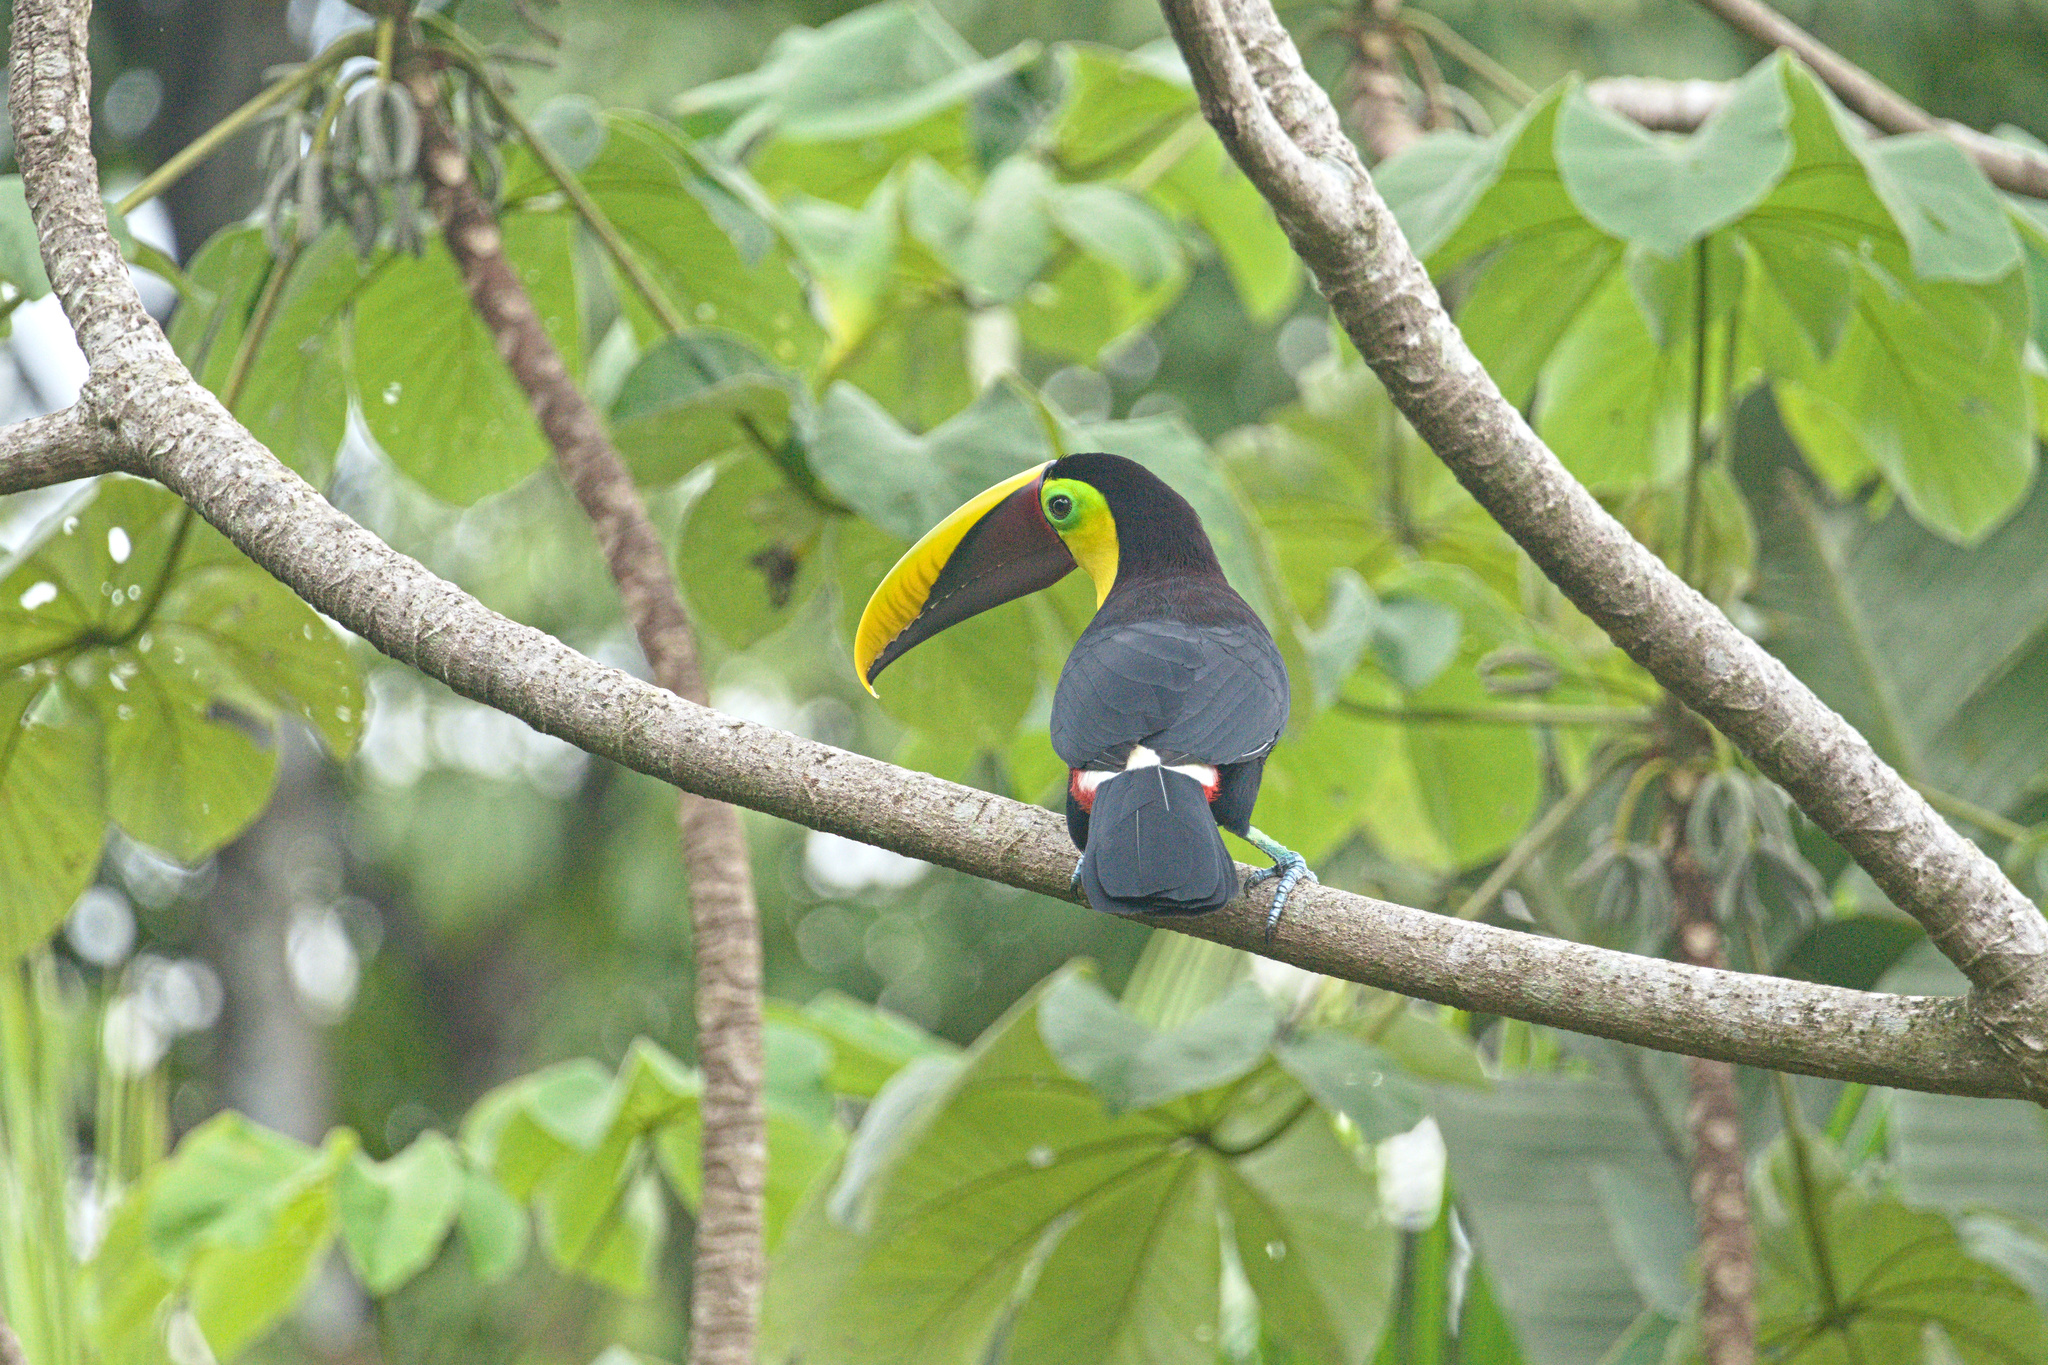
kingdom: Animalia
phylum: Chordata
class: Aves
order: Piciformes
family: Ramphastidae
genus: Ramphastos
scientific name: Ramphastos ambiguus
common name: Yellow-throated toucan
